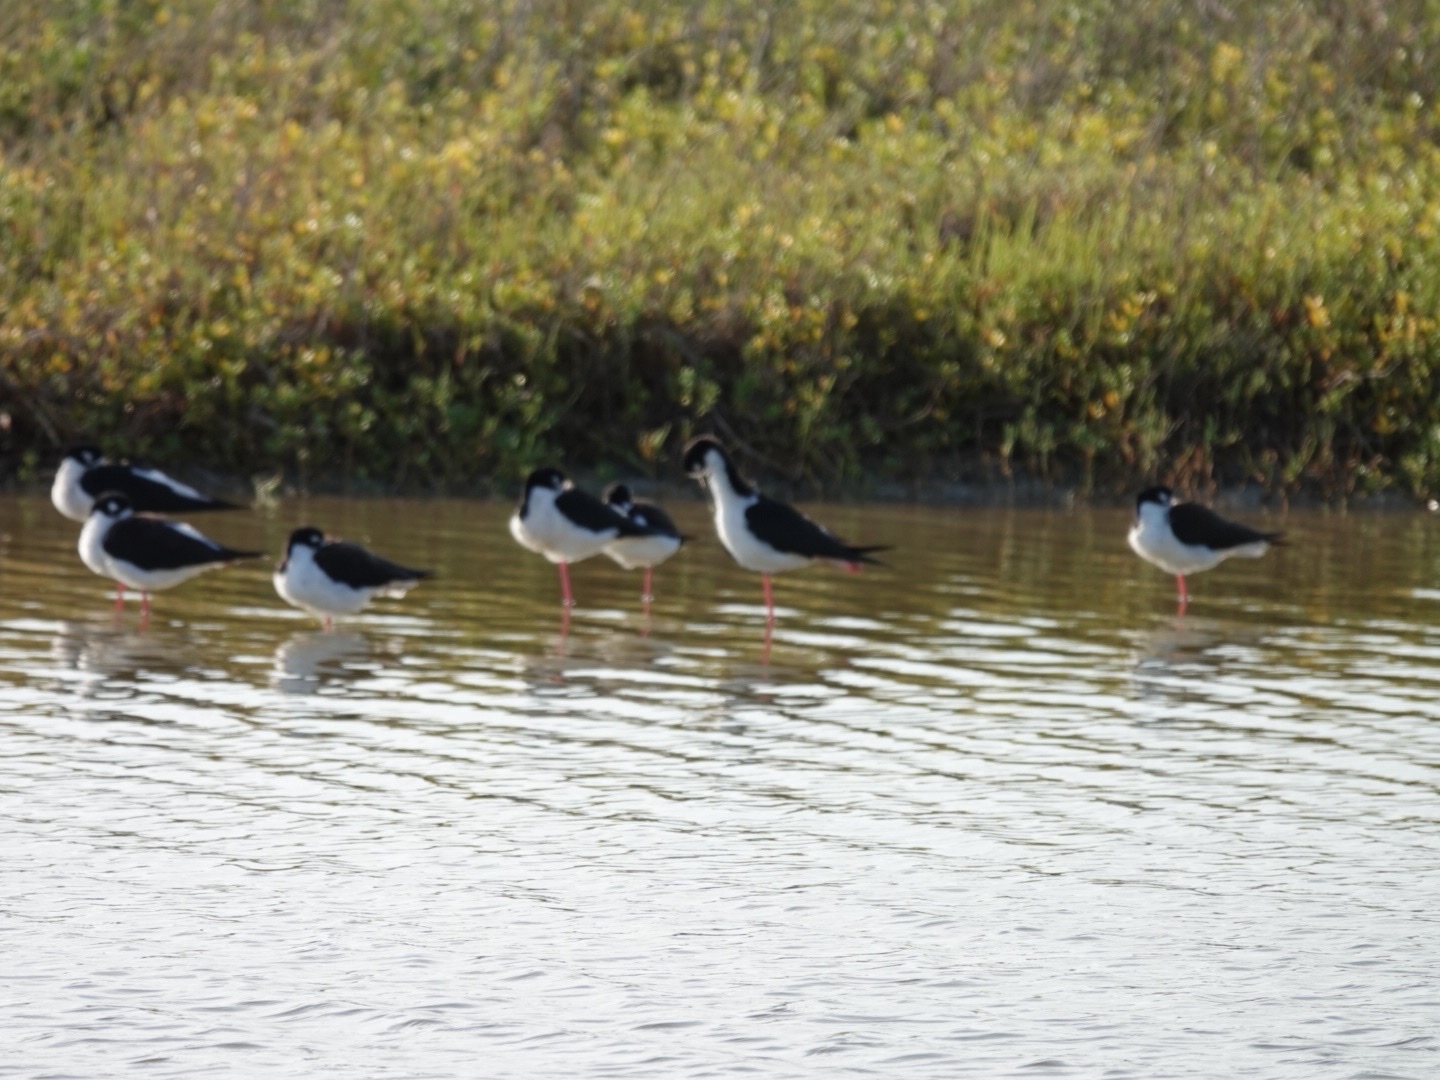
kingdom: Animalia
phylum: Chordata
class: Aves
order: Charadriiformes
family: Recurvirostridae
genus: Himantopus
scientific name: Himantopus mexicanus
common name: Black-necked stilt
